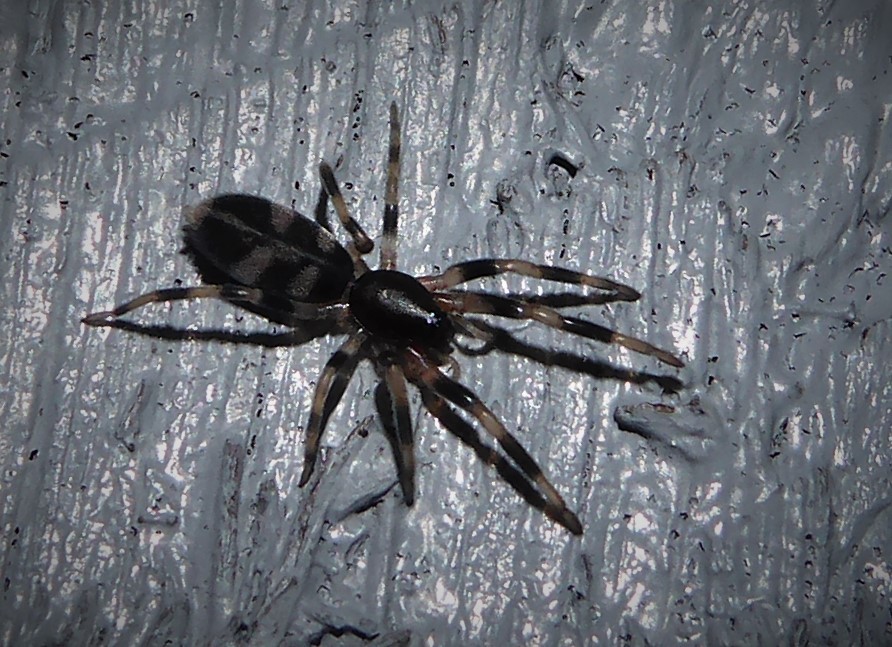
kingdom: Animalia
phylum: Arthropoda
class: Arachnida
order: Araneae
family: Lamponidae
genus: Lampona
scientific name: Lampona cylindrata
